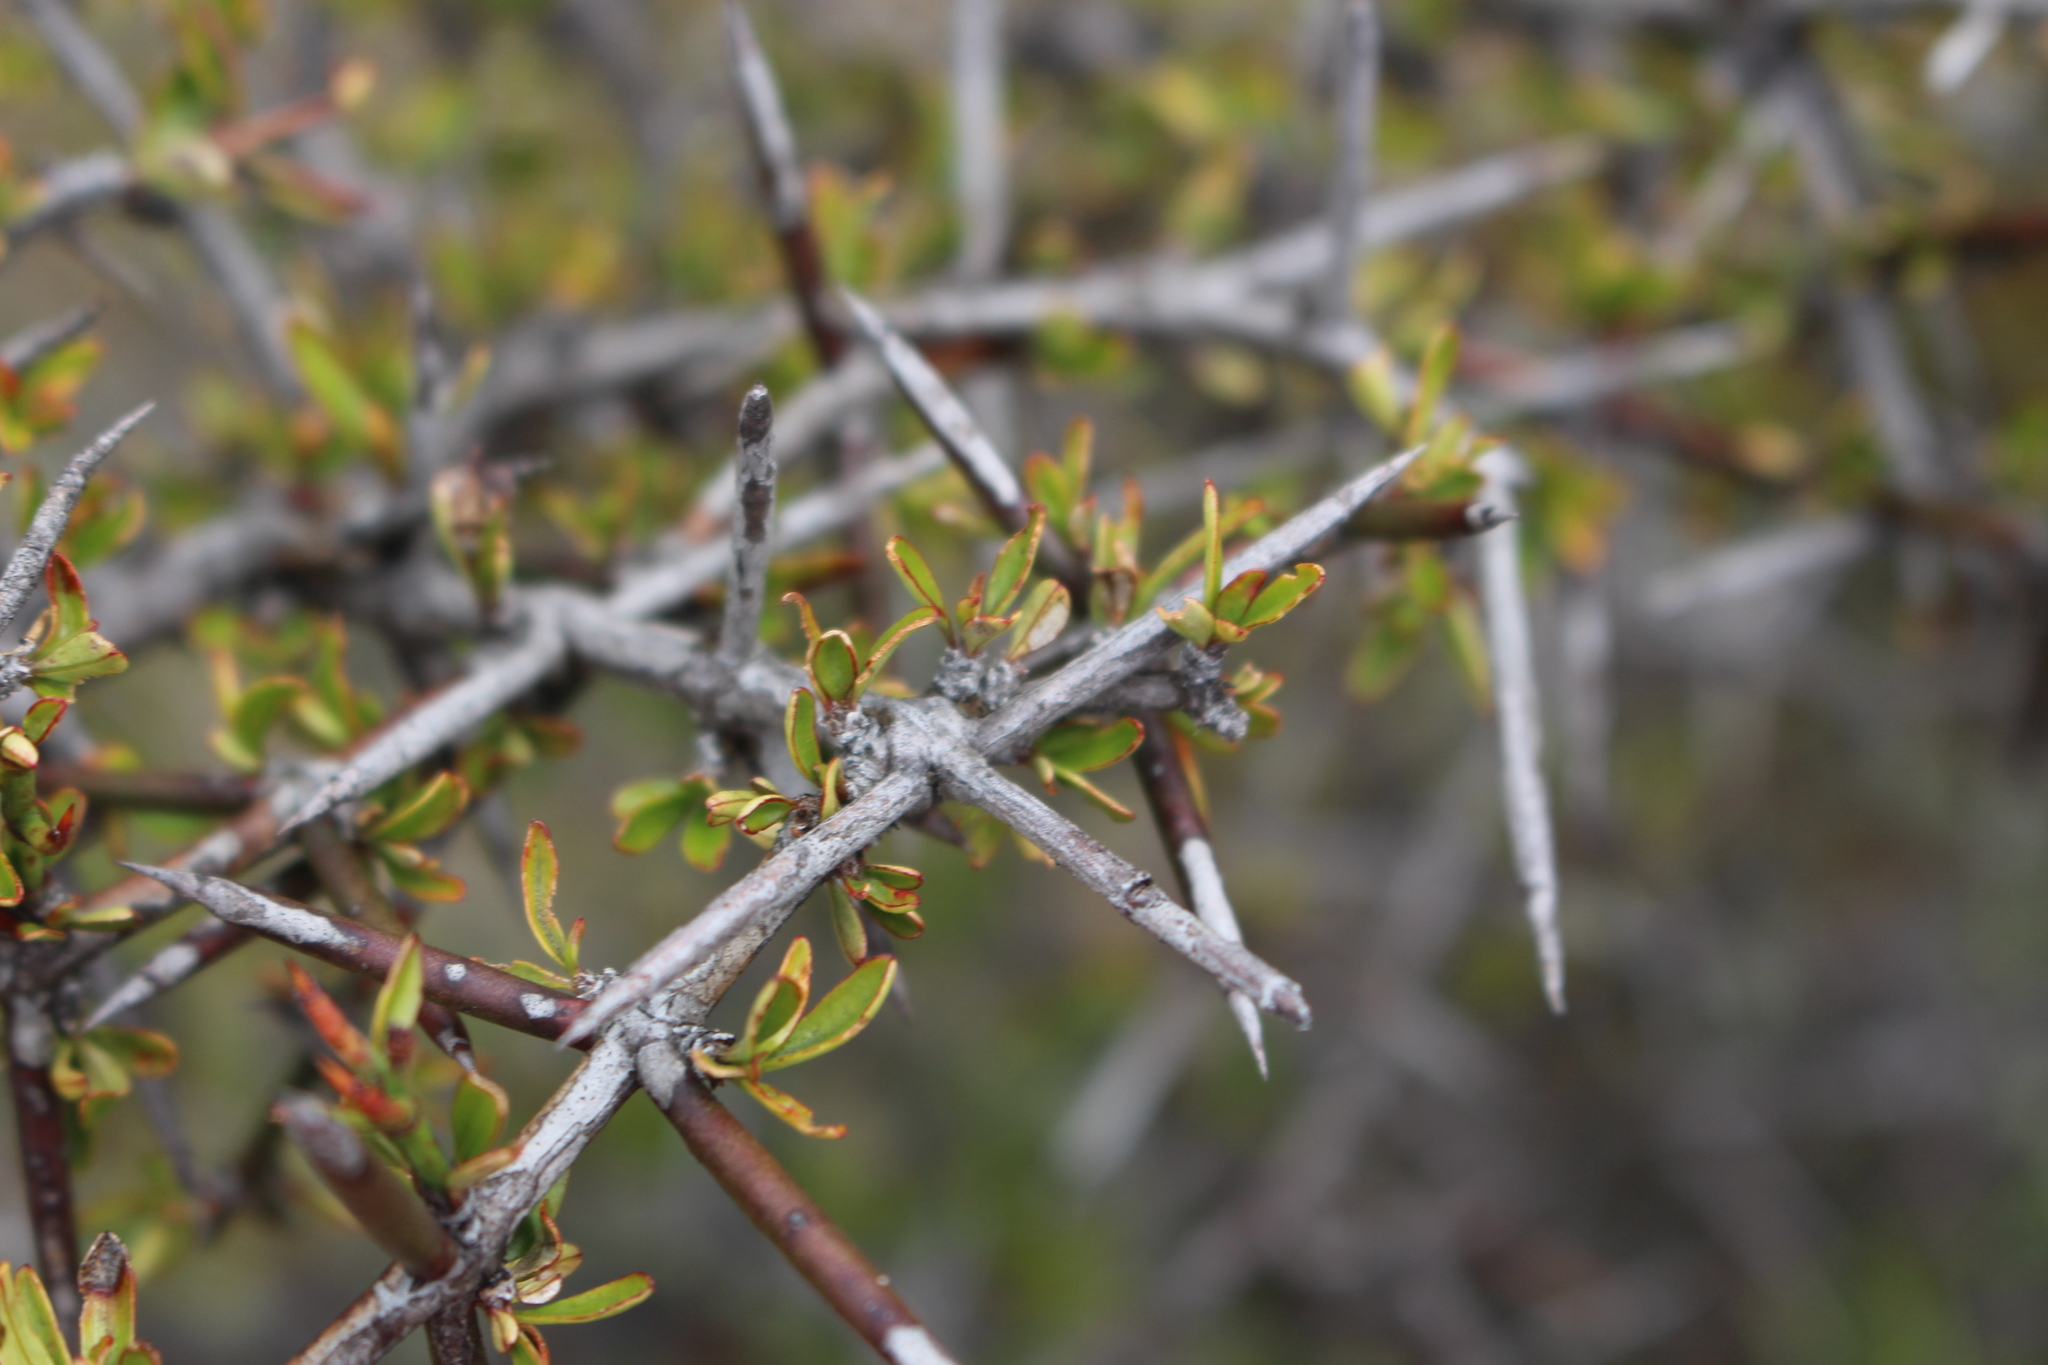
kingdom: Plantae
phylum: Tracheophyta
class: Magnoliopsida
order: Rosales
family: Rhamnaceae
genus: Discaria
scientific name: Discaria toumatou
